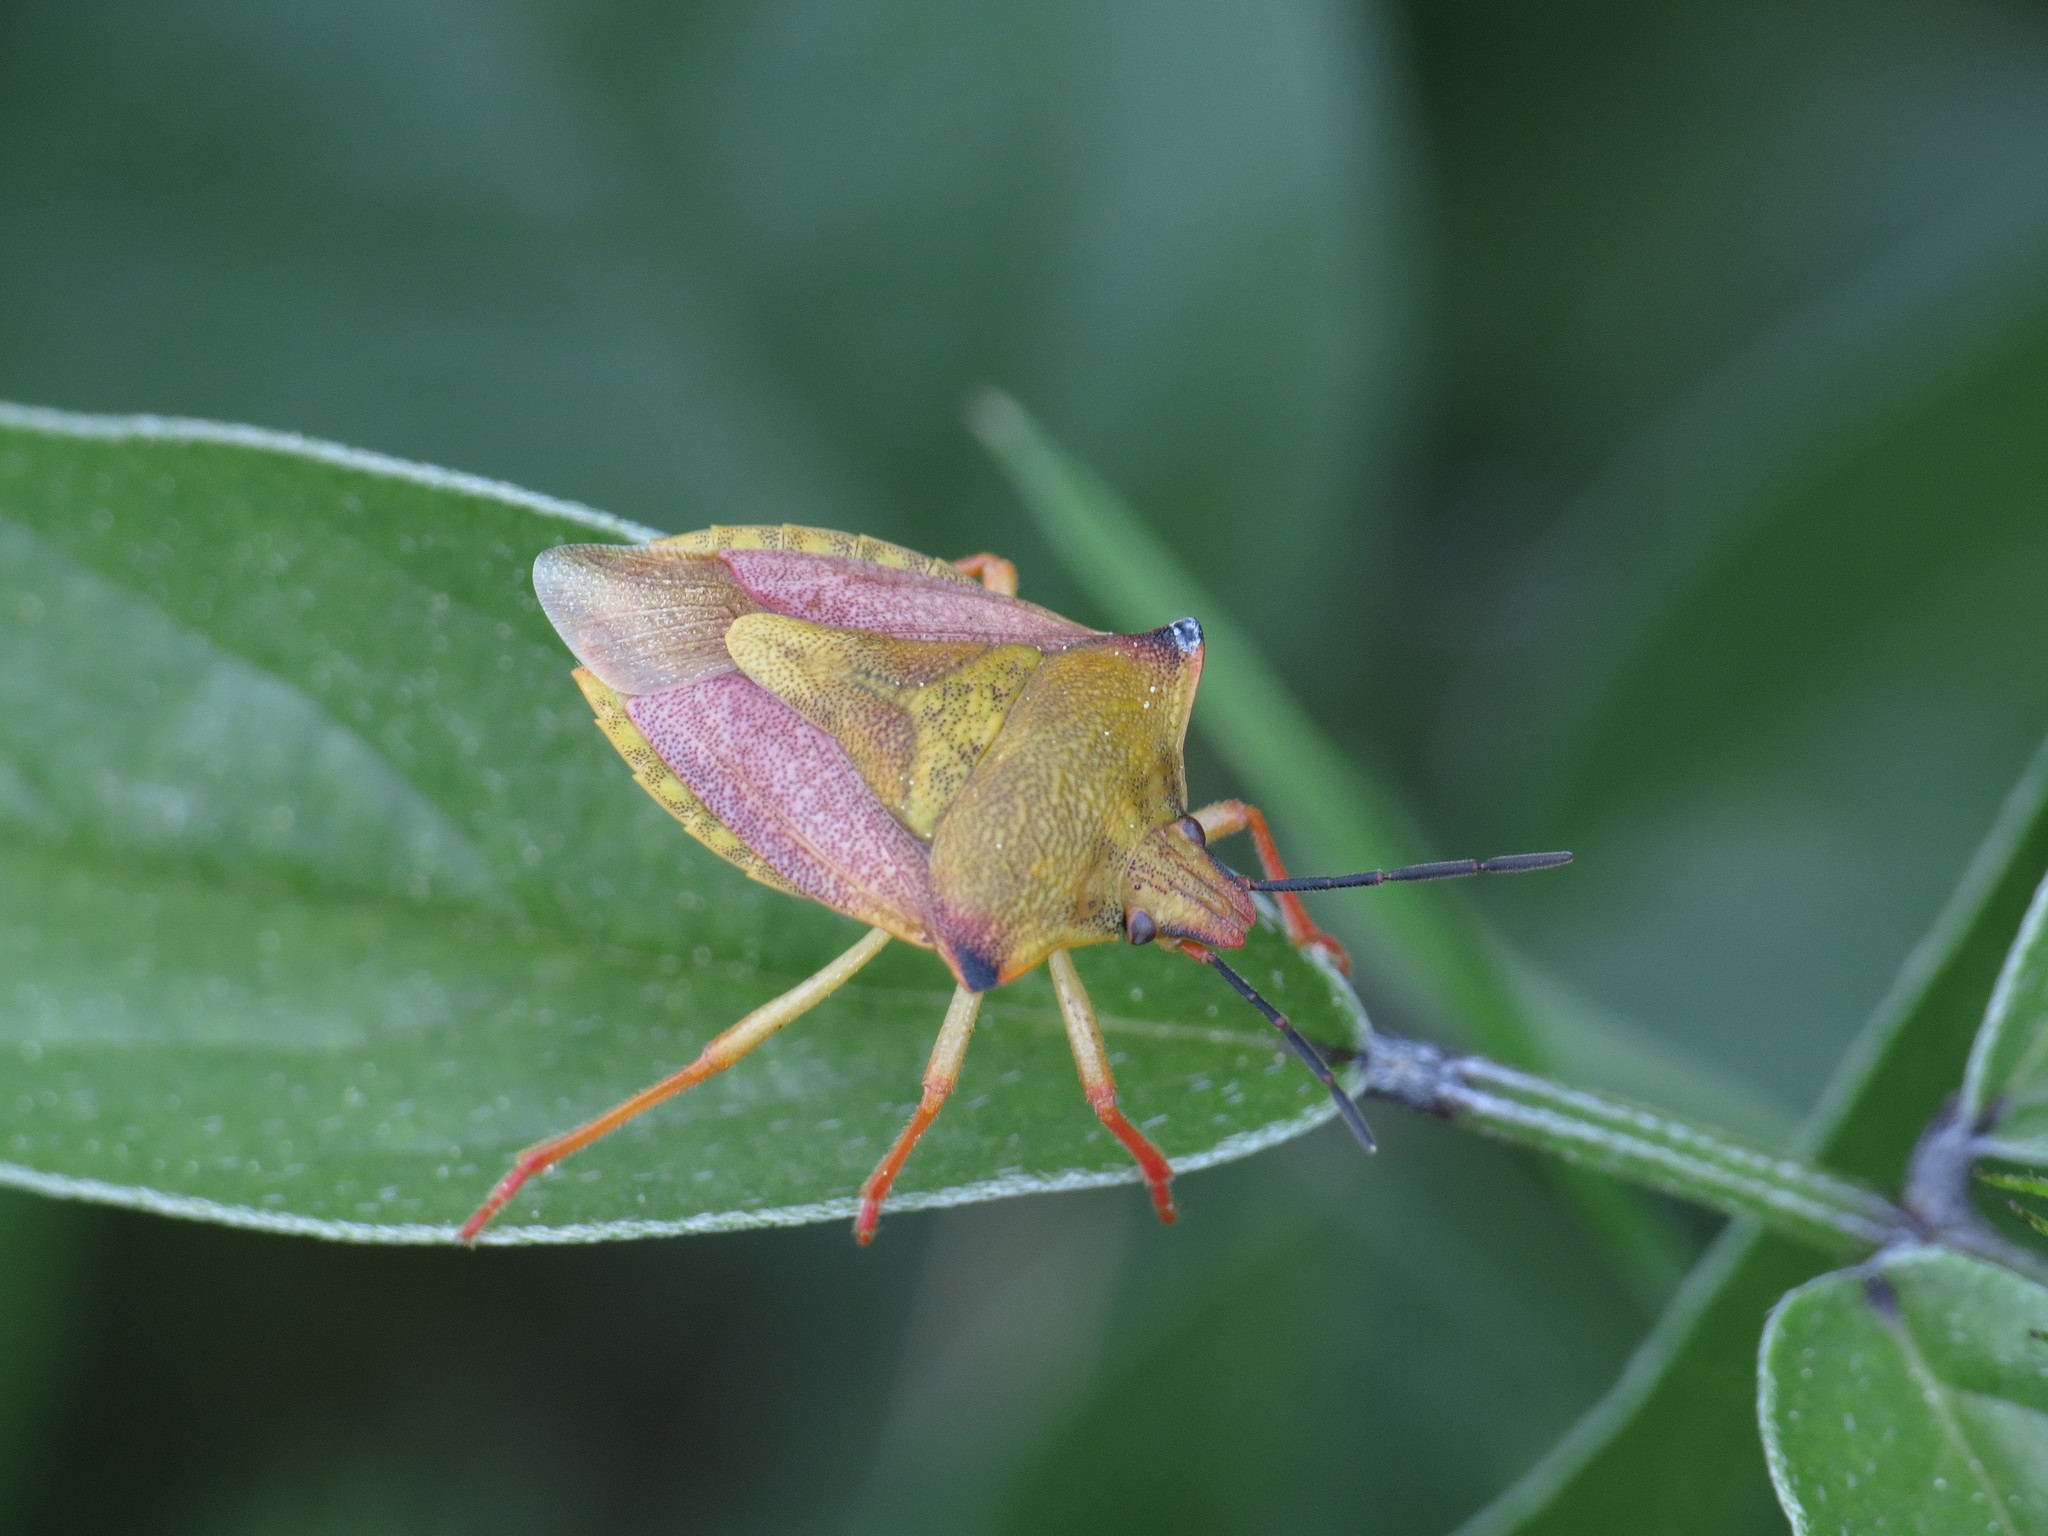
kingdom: Animalia
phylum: Arthropoda
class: Insecta
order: Hemiptera
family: Pentatomidae
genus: Carpocoris
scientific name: Carpocoris mediterraneus
